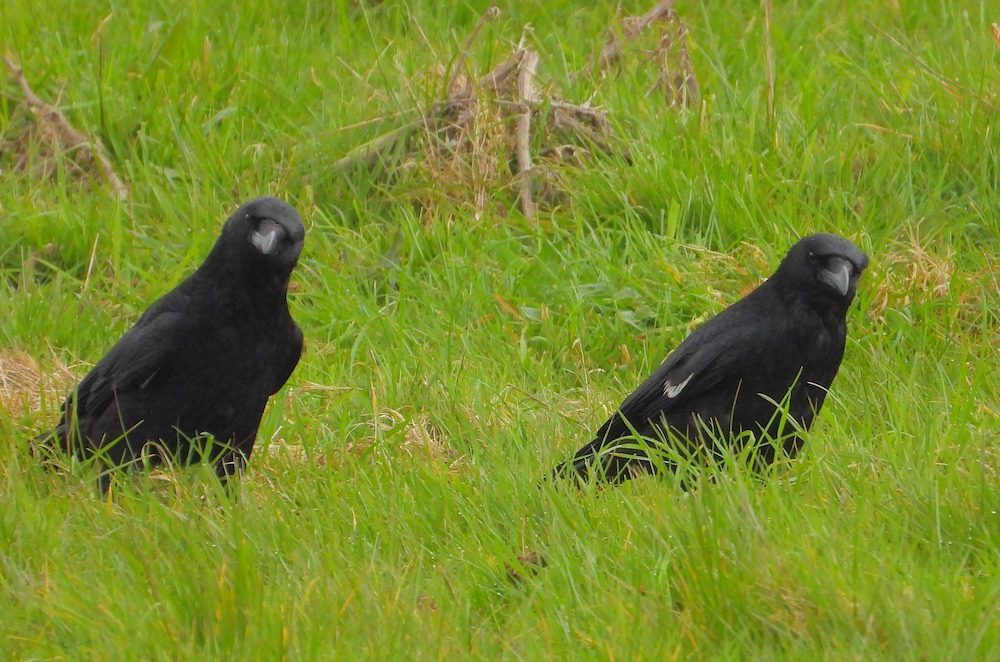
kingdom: Animalia
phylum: Chordata
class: Aves
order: Passeriformes
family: Corvidae
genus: Corvus
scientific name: Corvus corone
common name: Carrion crow
